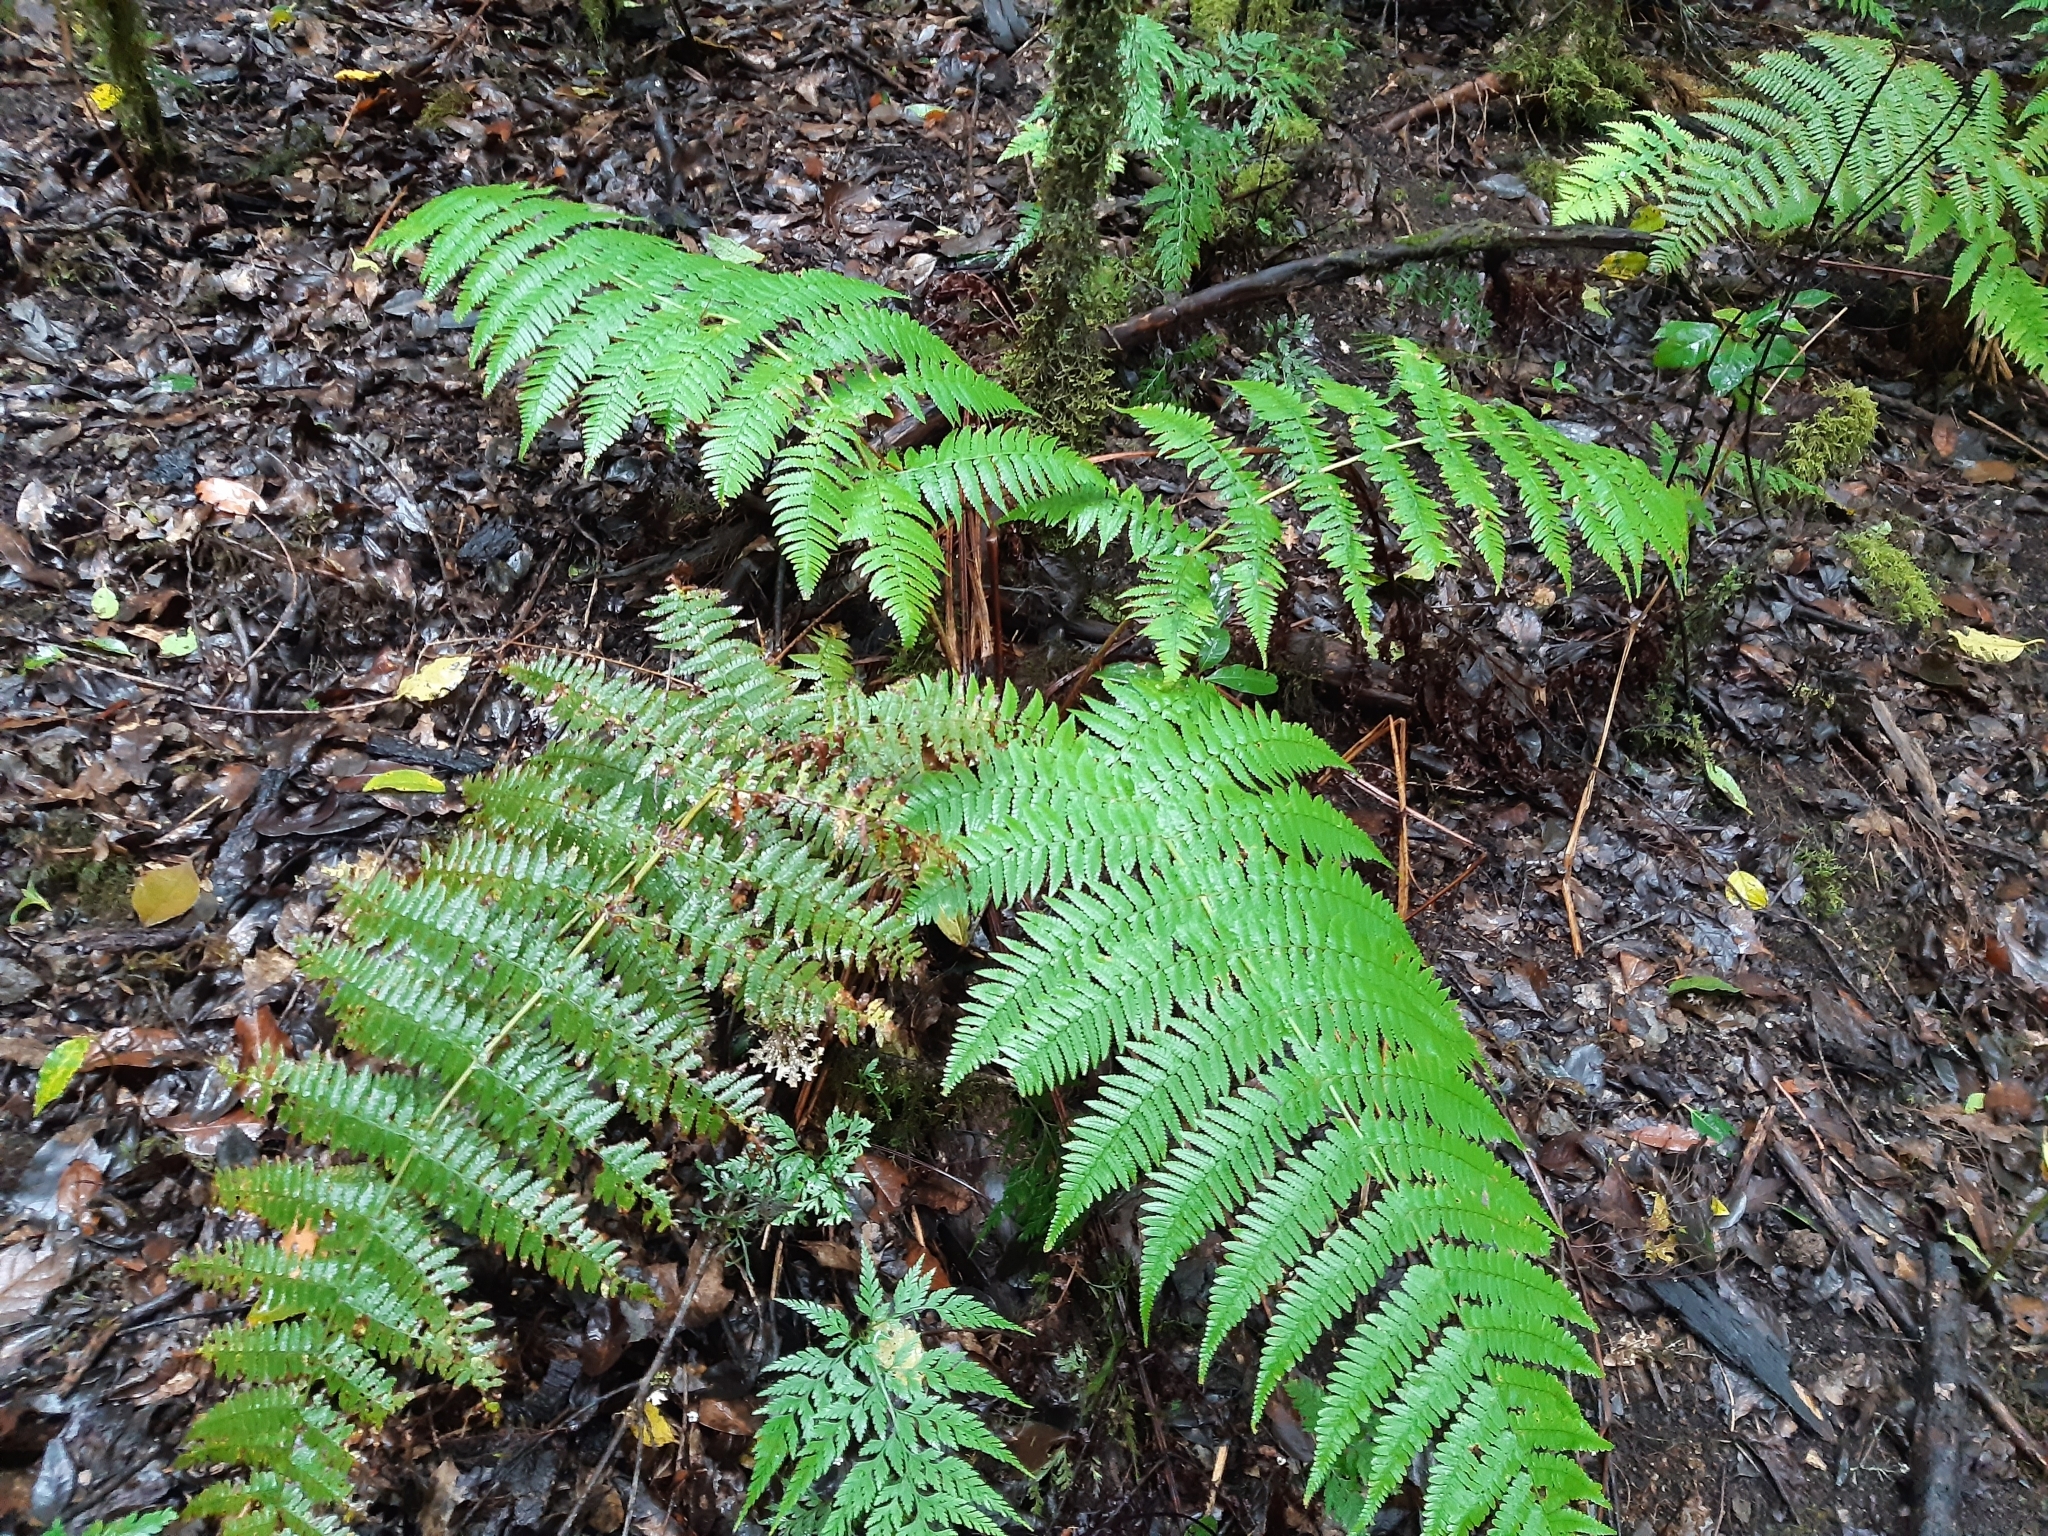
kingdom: Plantae
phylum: Tracheophyta
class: Polypodiopsida
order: Polypodiales
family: Dryopteridaceae
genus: Dryopteris
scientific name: Dryopteris oligodonta
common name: Canarian male-fern
